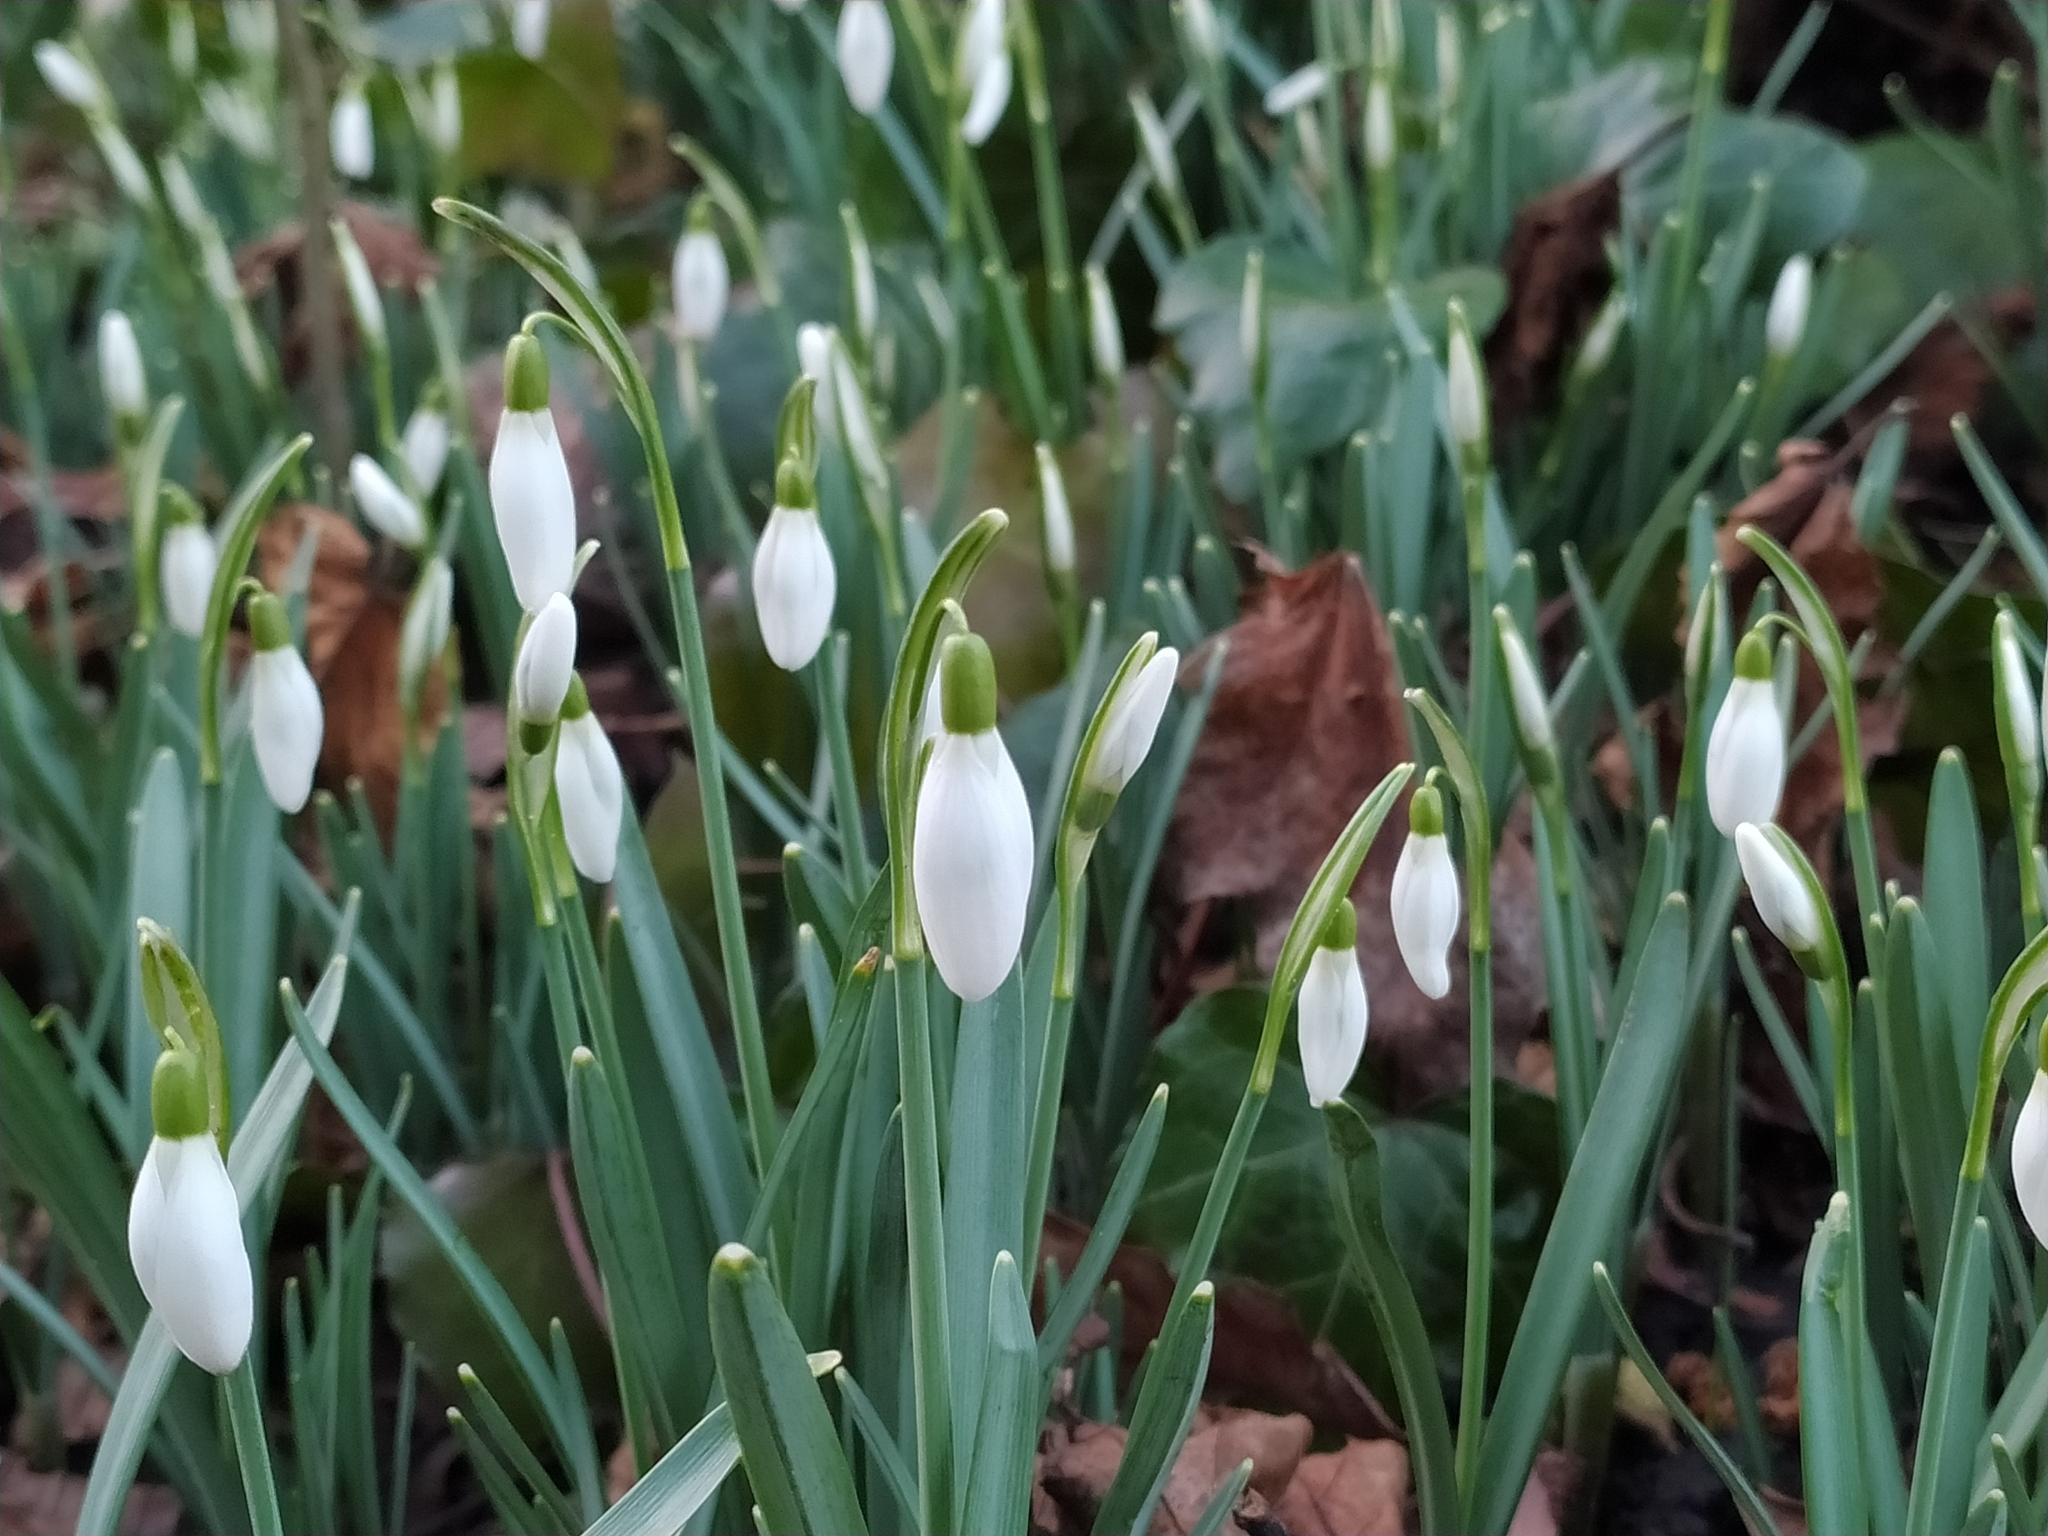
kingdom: Plantae
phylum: Tracheophyta
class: Liliopsida
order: Asparagales
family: Amaryllidaceae
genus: Galanthus
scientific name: Galanthus nivalis
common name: Snowdrop
